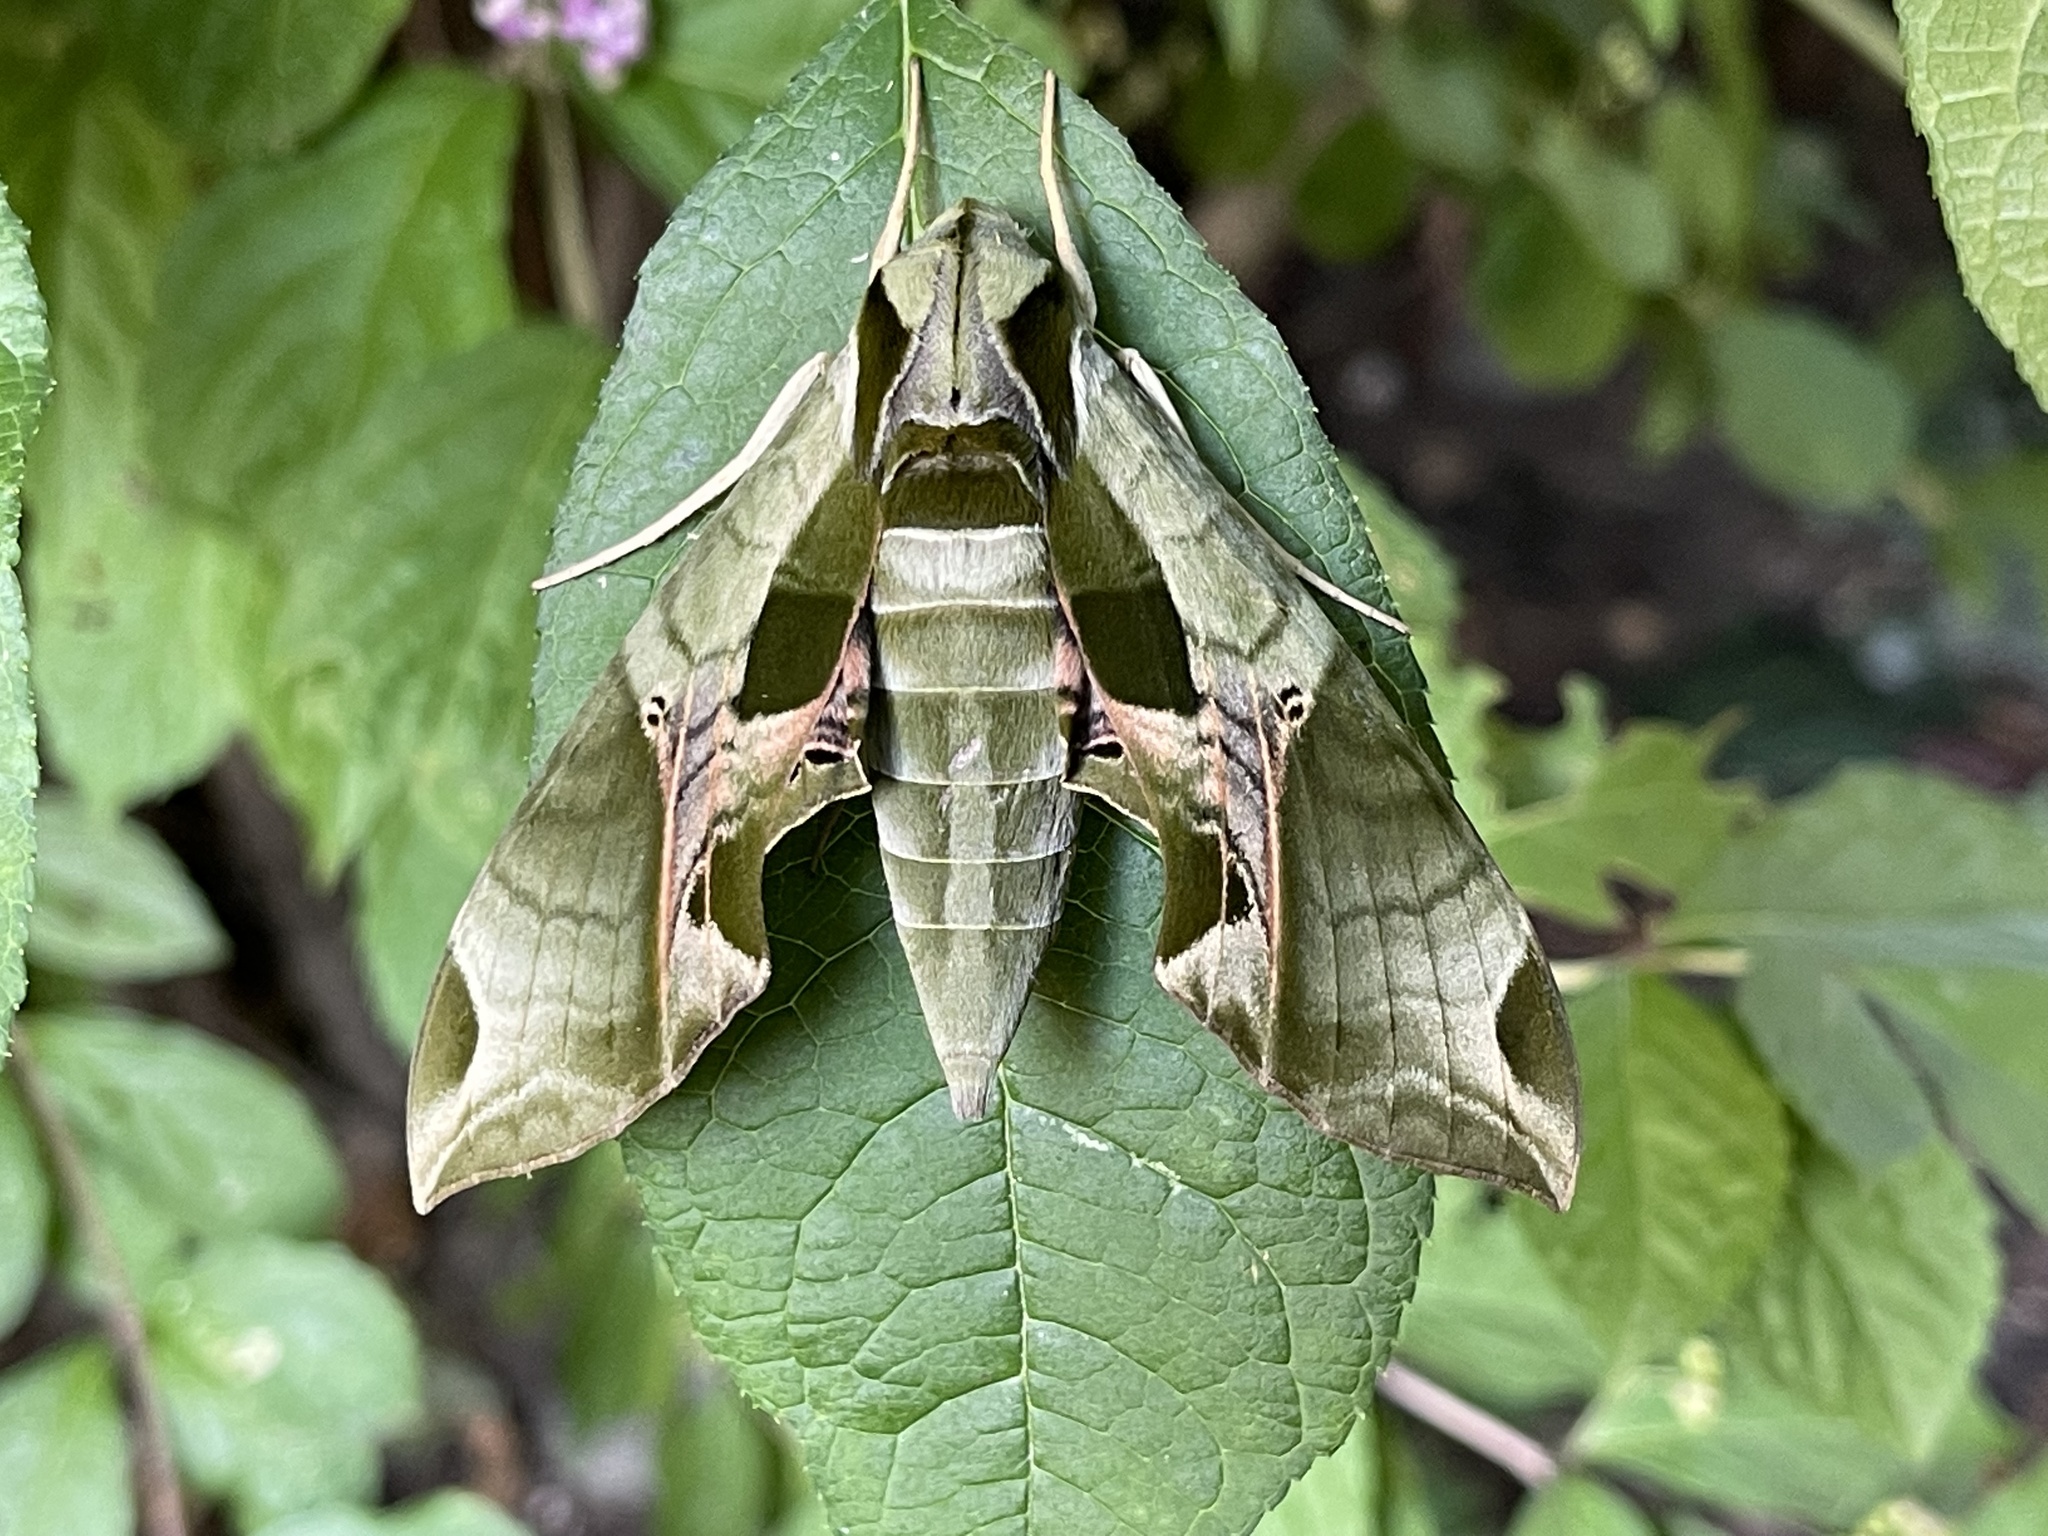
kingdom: Animalia
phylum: Arthropoda
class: Insecta
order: Lepidoptera
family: Sphingidae
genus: Eumorpha
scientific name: Eumorpha pandorus
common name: Pandora sphinx
